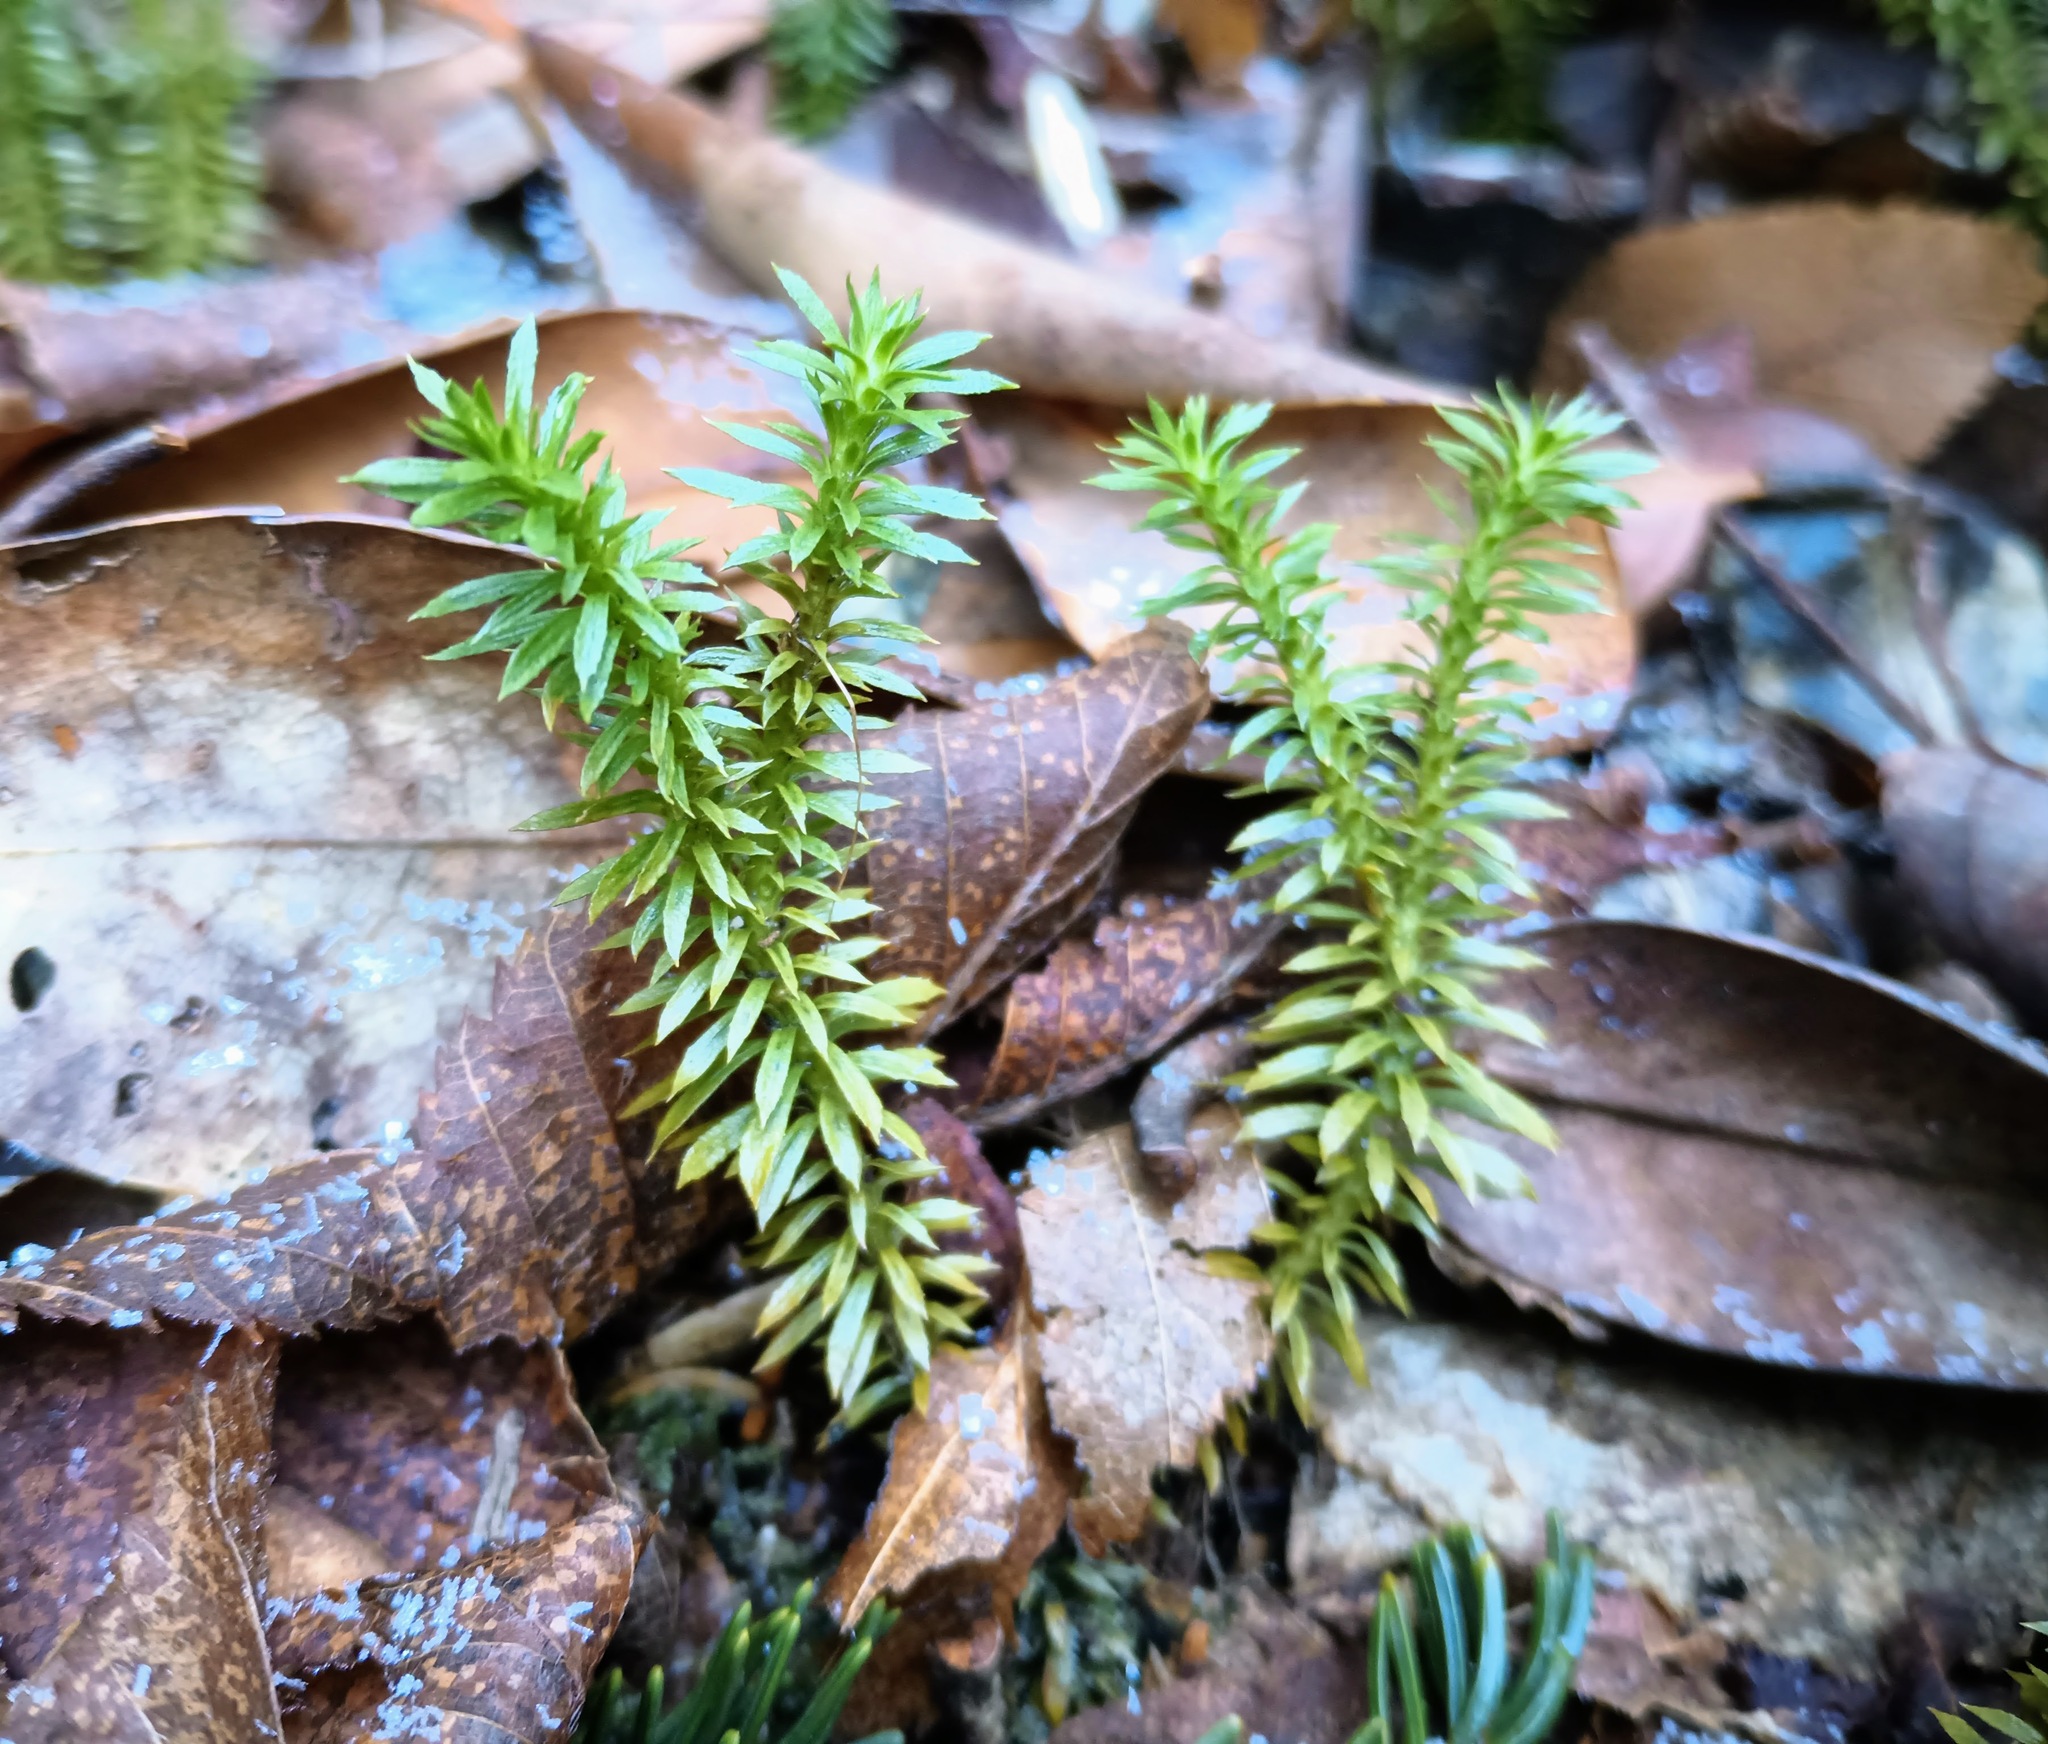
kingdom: Plantae
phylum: Tracheophyta
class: Lycopodiopsida
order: Lycopodiales
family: Lycopodiaceae
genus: Huperzia
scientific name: Huperzia lucidula
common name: Shining clubmoss
